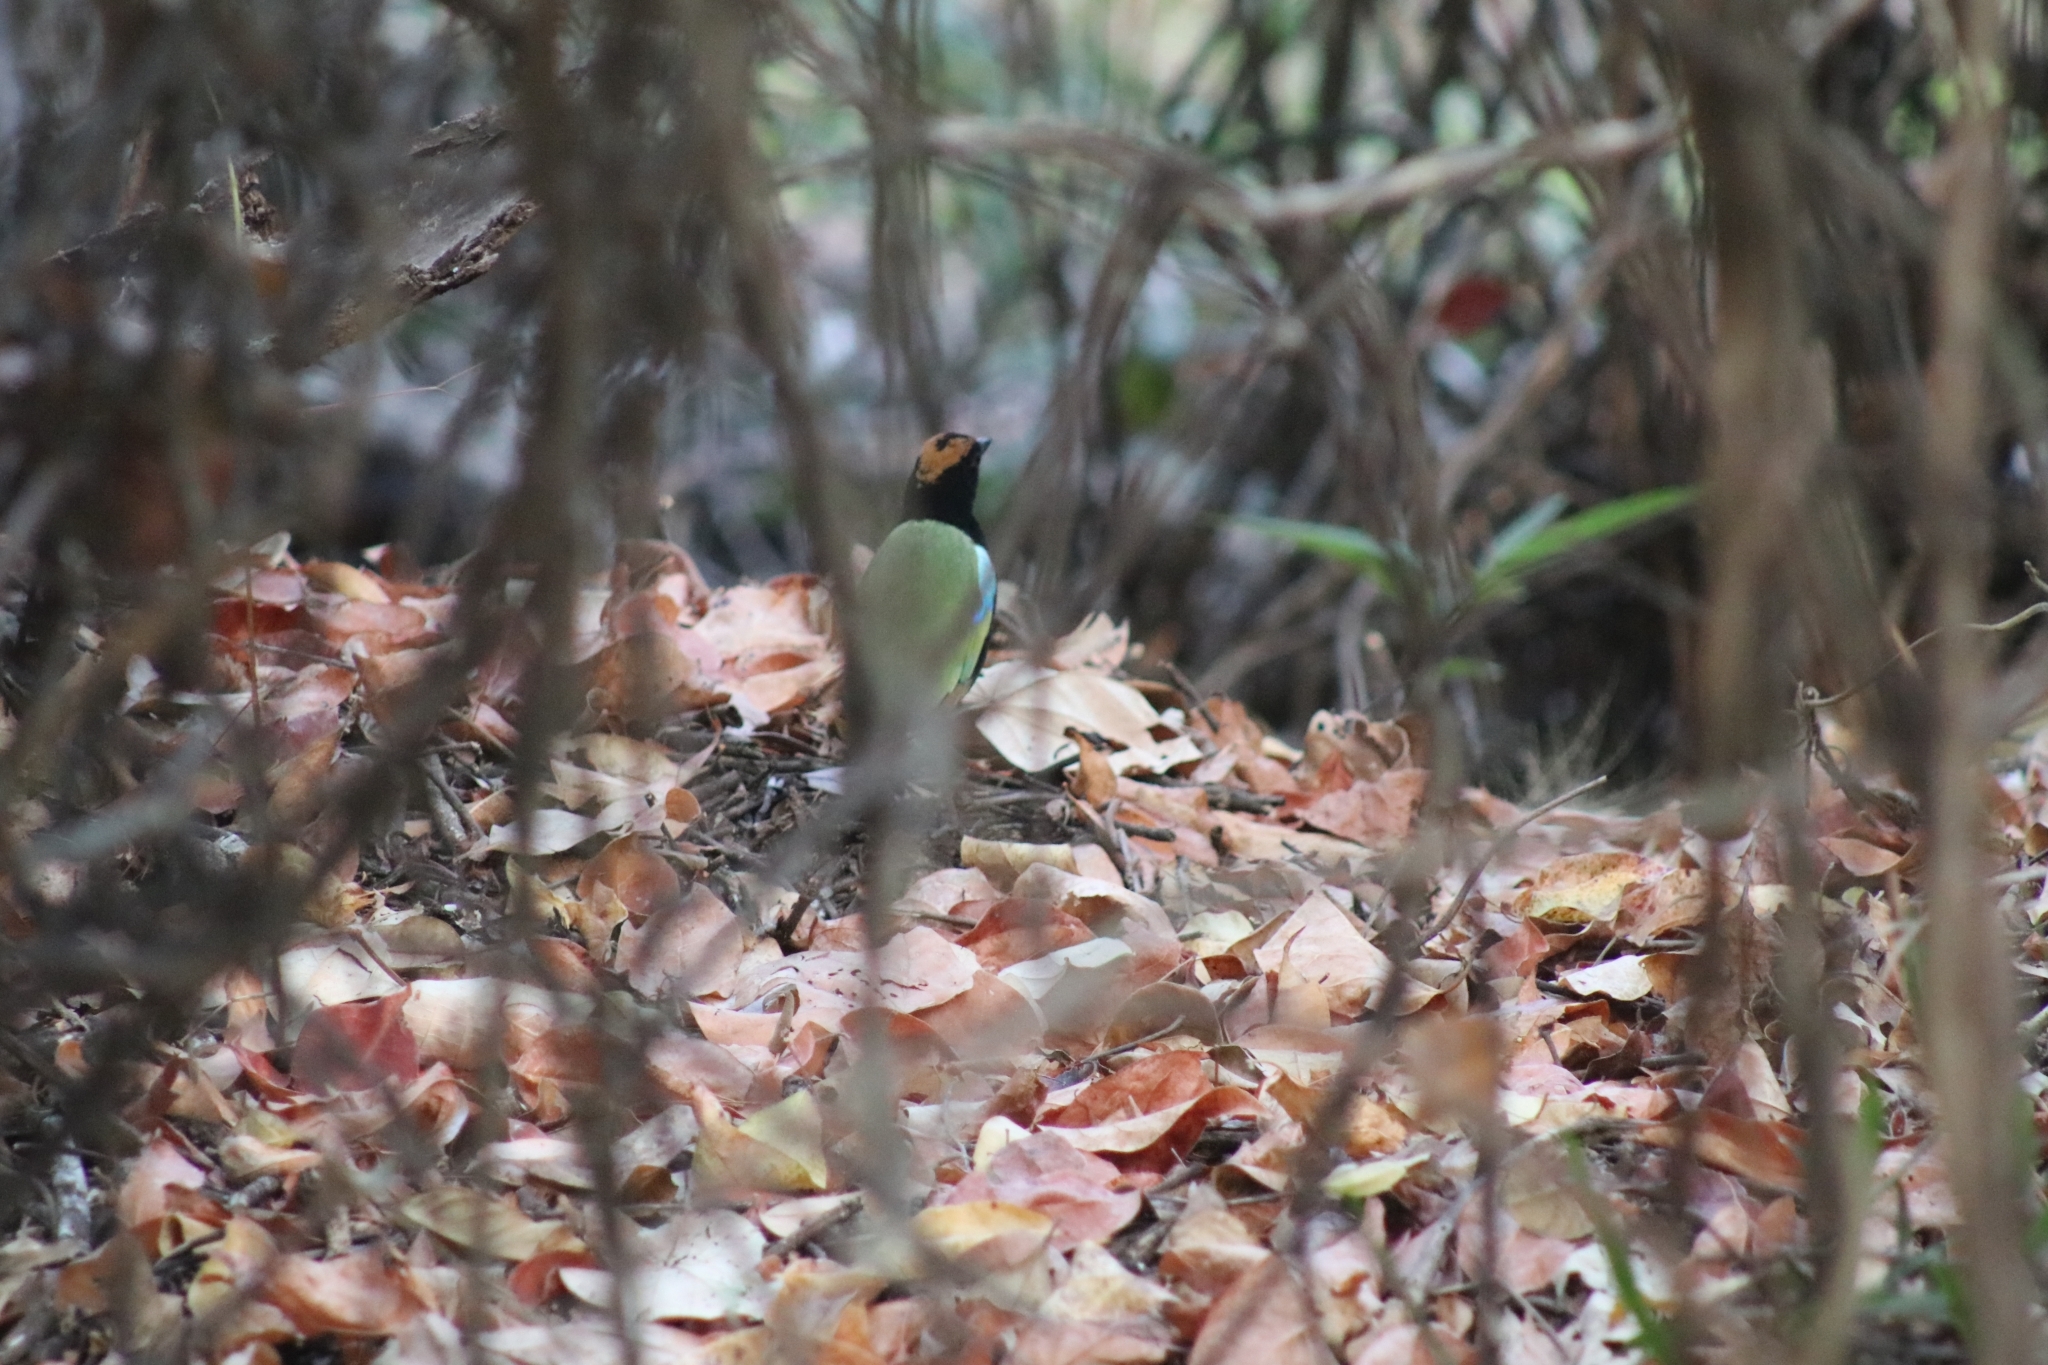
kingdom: Animalia
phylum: Chordata
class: Aves
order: Passeriformes
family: Pittidae
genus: Pitta
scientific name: Pitta iris
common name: Rainbow pitta
